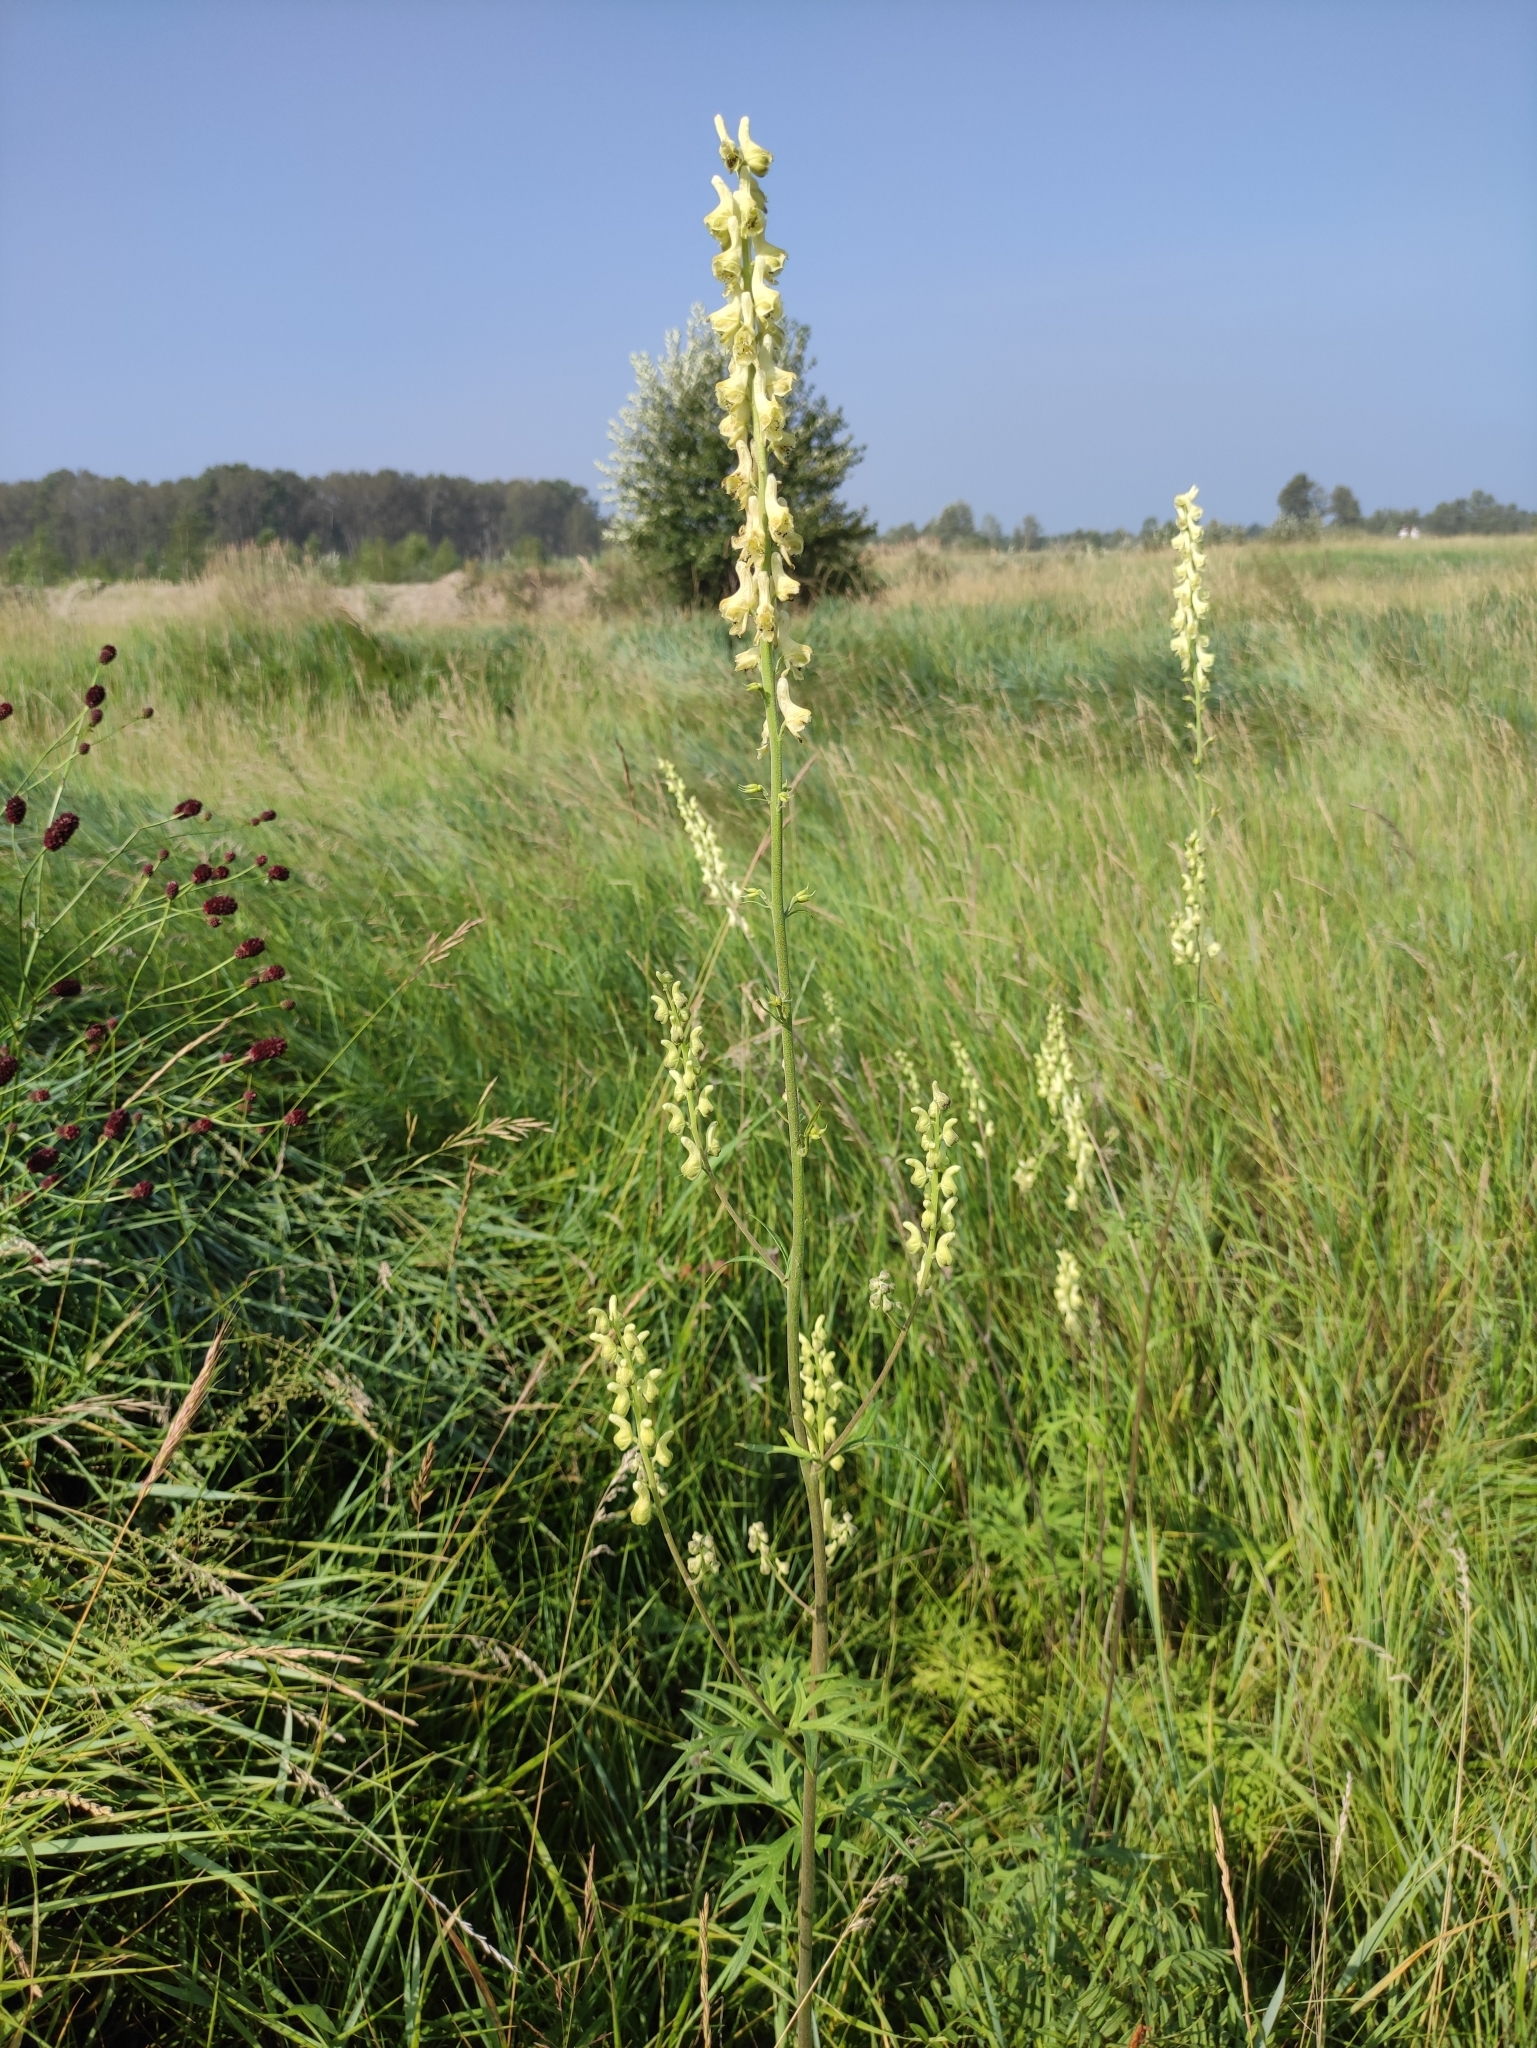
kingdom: Plantae
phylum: Tracheophyta
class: Magnoliopsida
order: Ranunculales
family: Ranunculaceae
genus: Aconitum
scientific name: Aconitum barbatum
